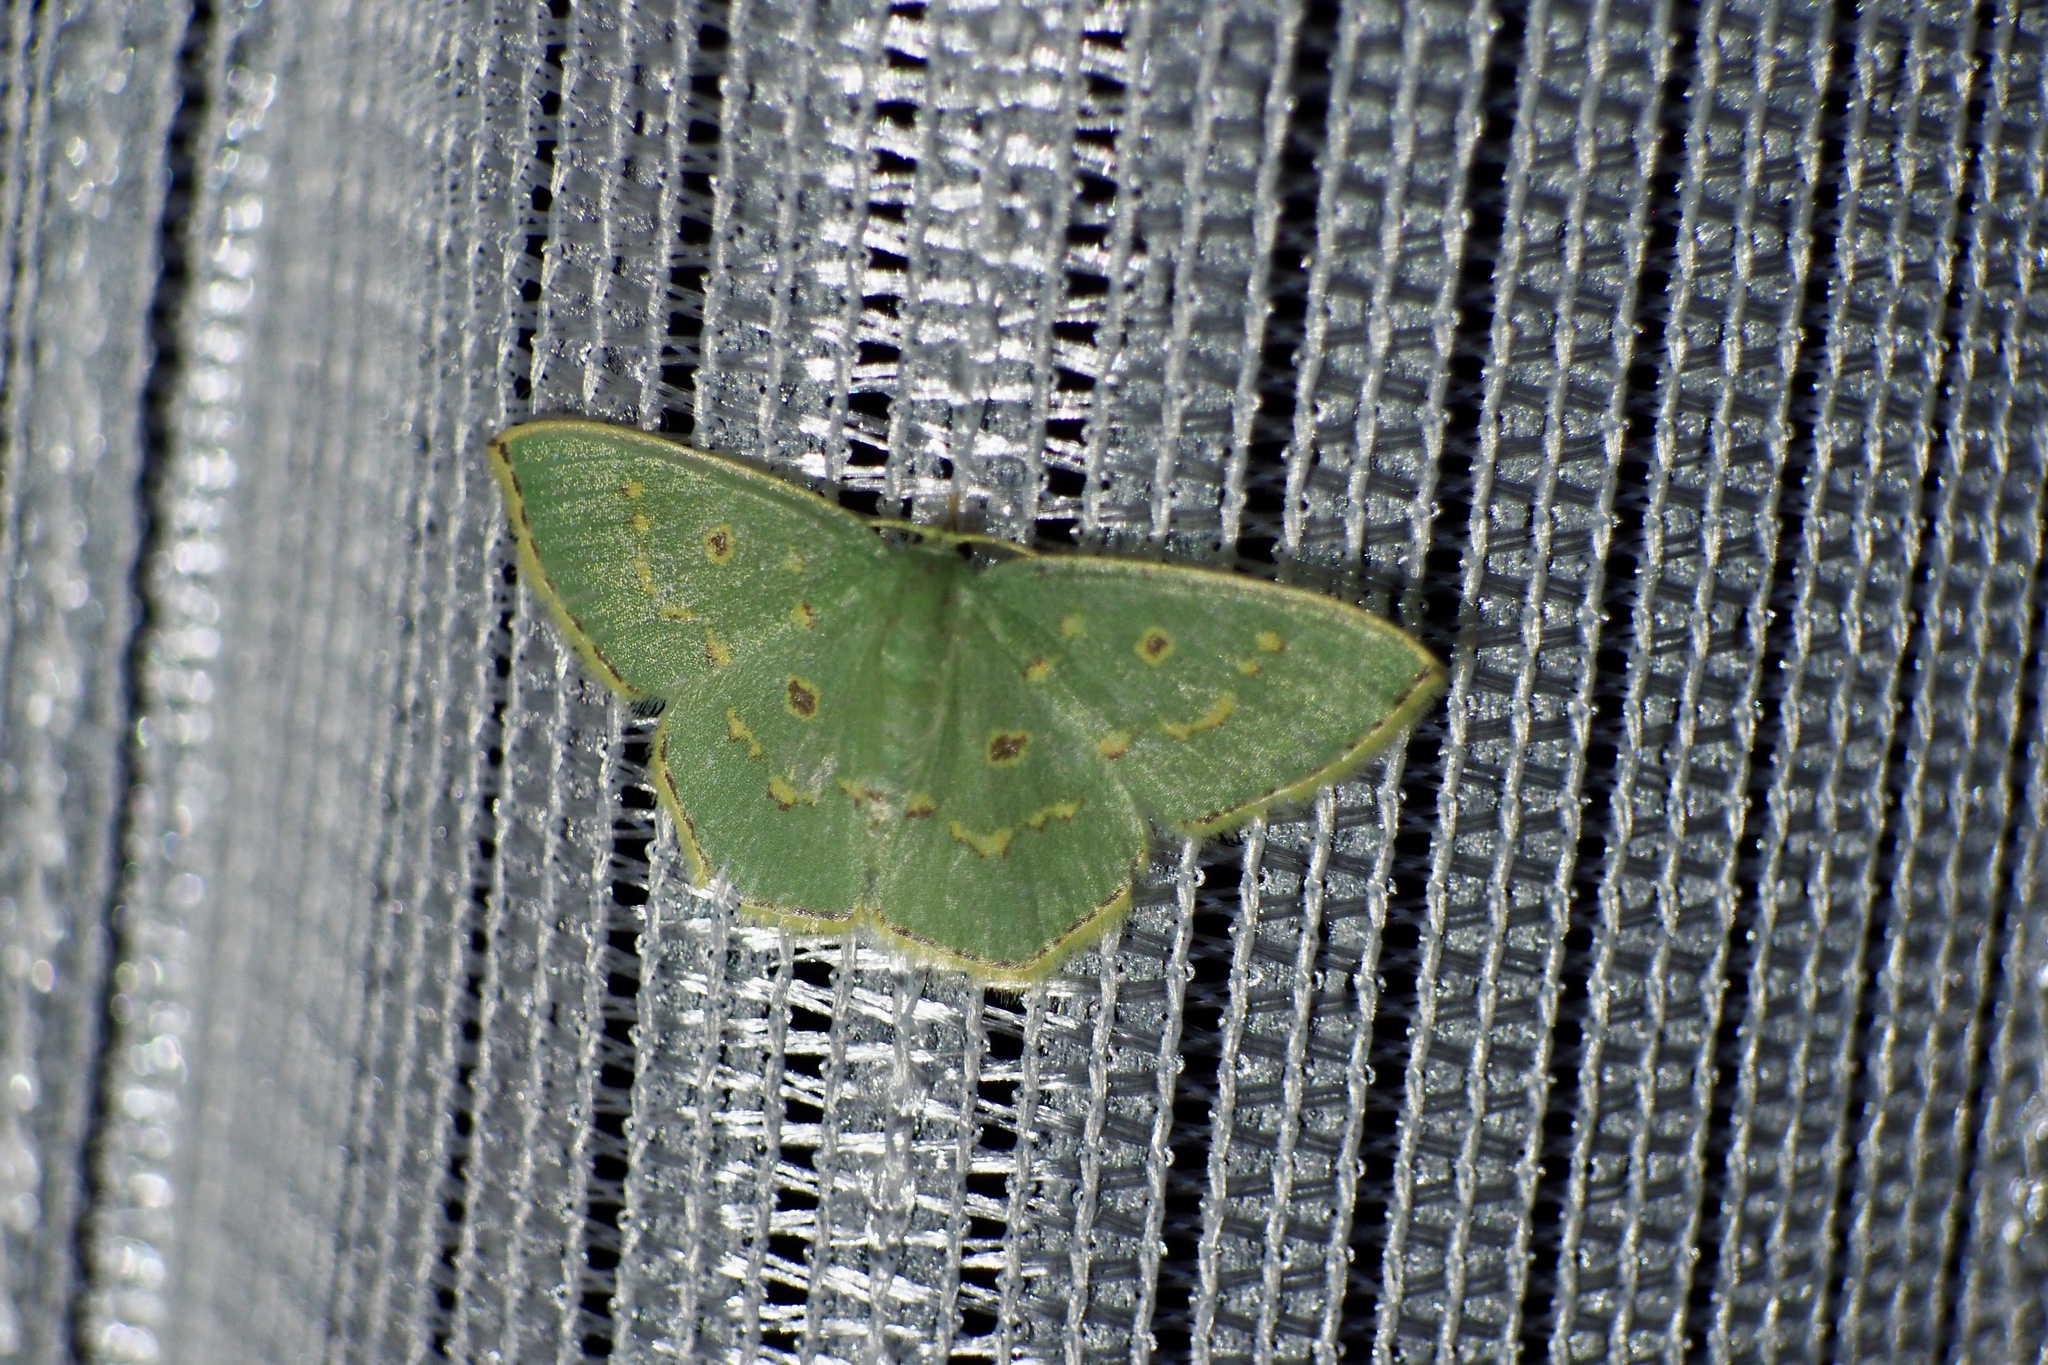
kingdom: Animalia
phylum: Arthropoda
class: Insecta
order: Lepidoptera
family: Geometridae
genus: Comostola
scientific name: Comostola subtiliaria
